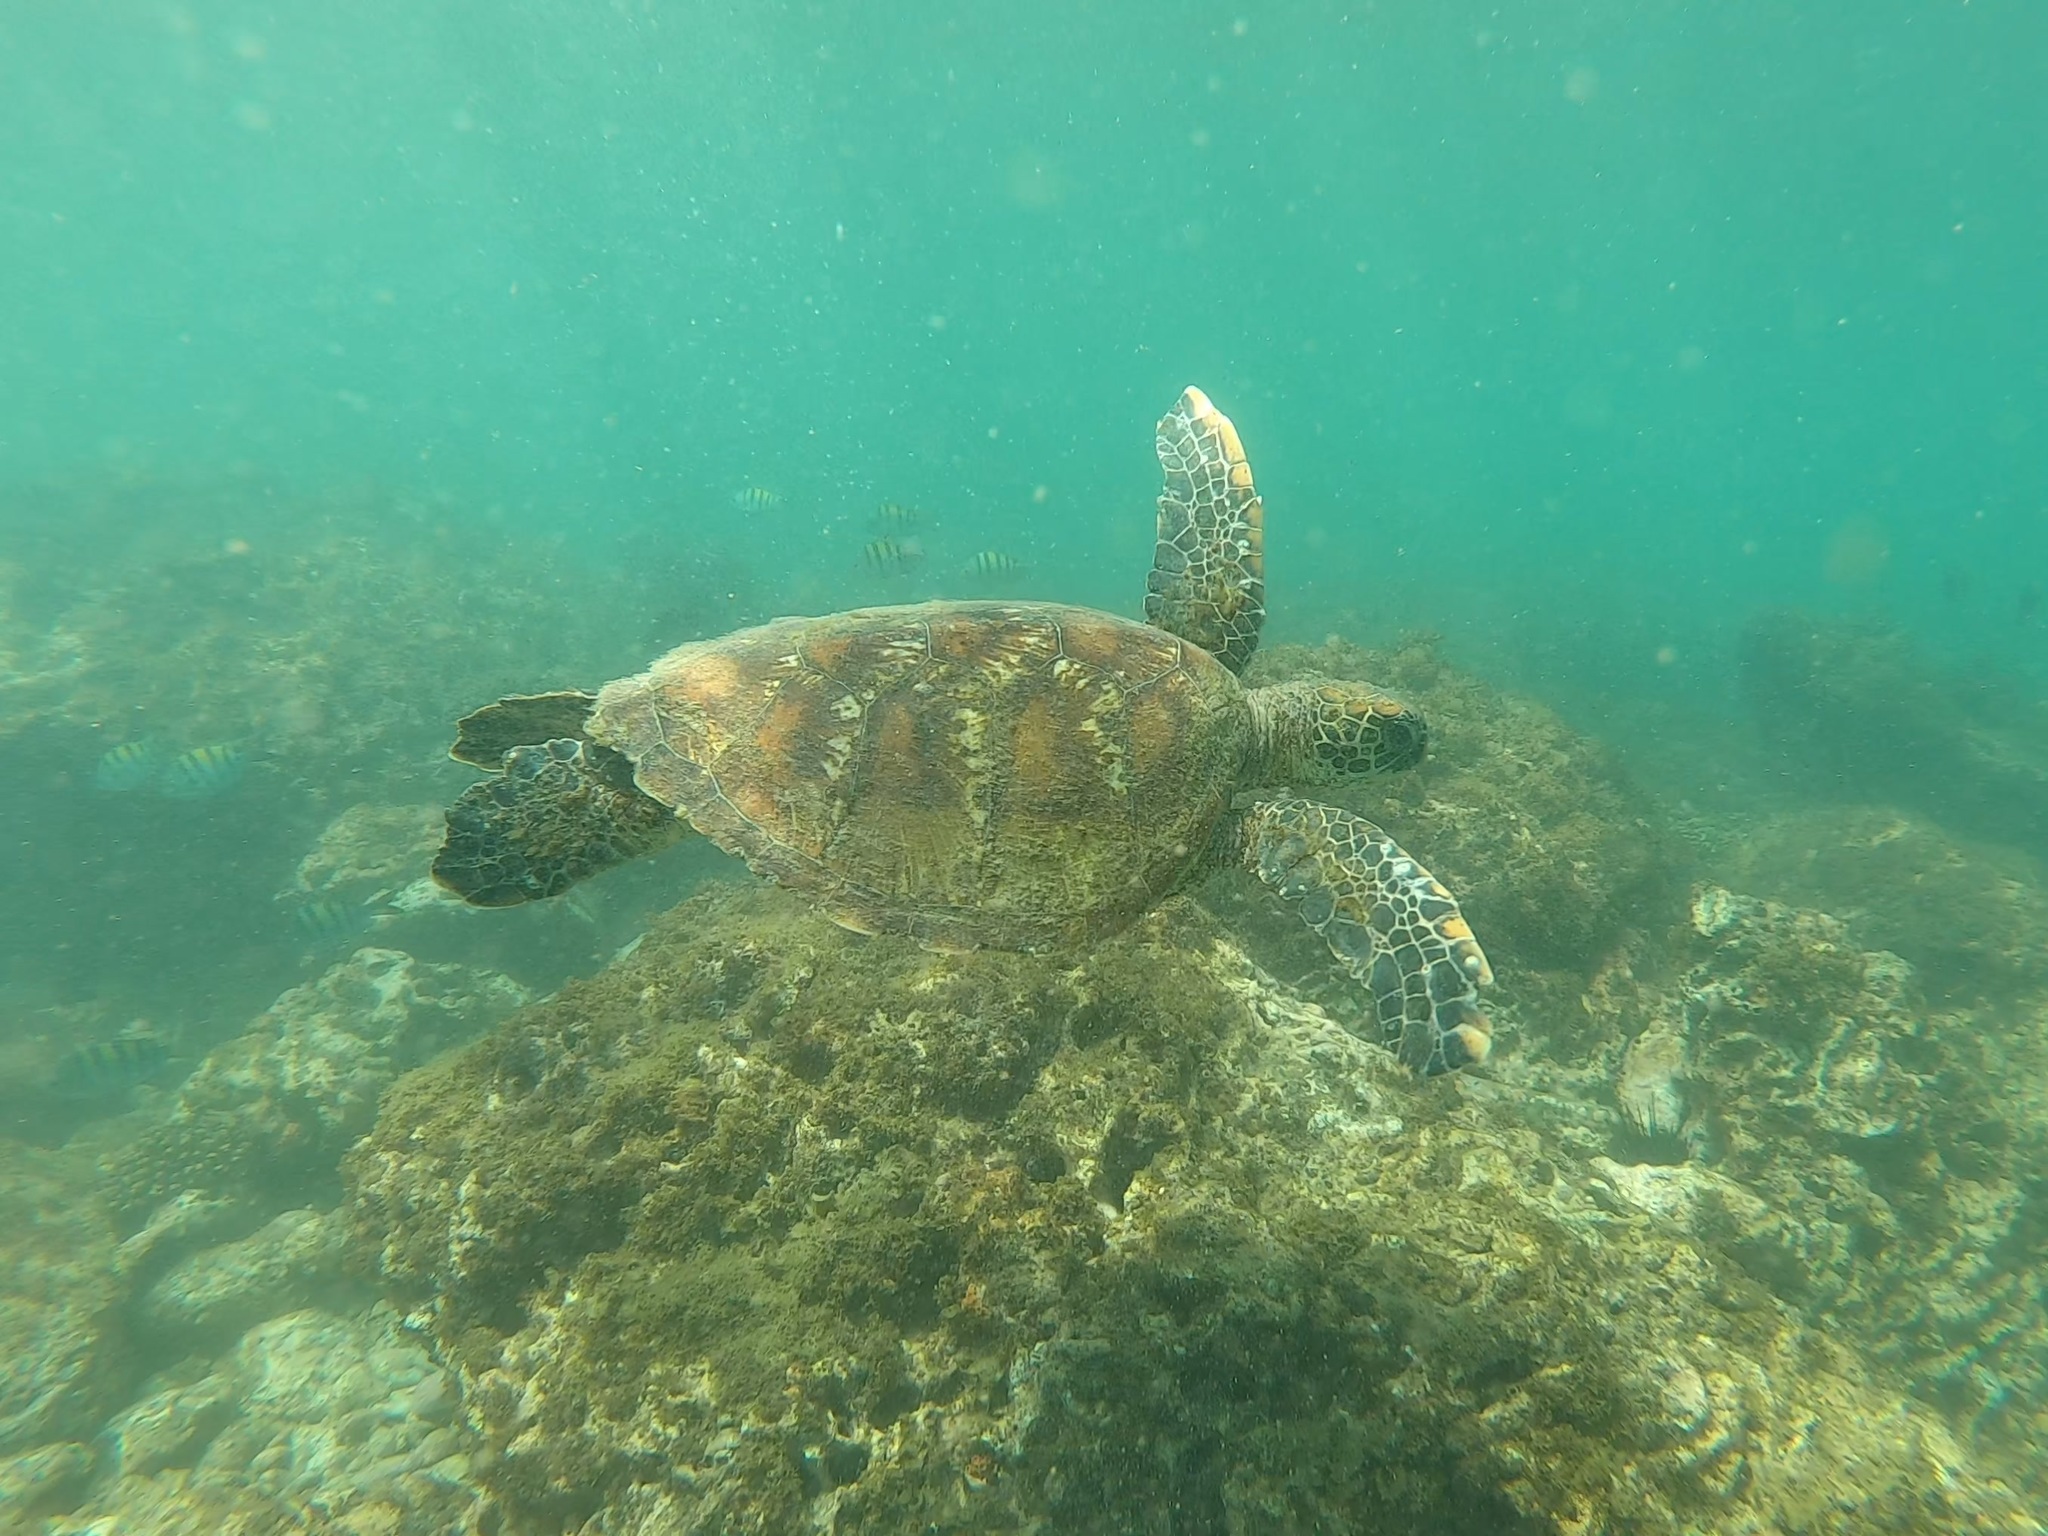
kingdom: Animalia
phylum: Chordata
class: Testudines
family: Cheloniidae
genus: Chelonia
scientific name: Chelonia mydas
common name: Green turtle
